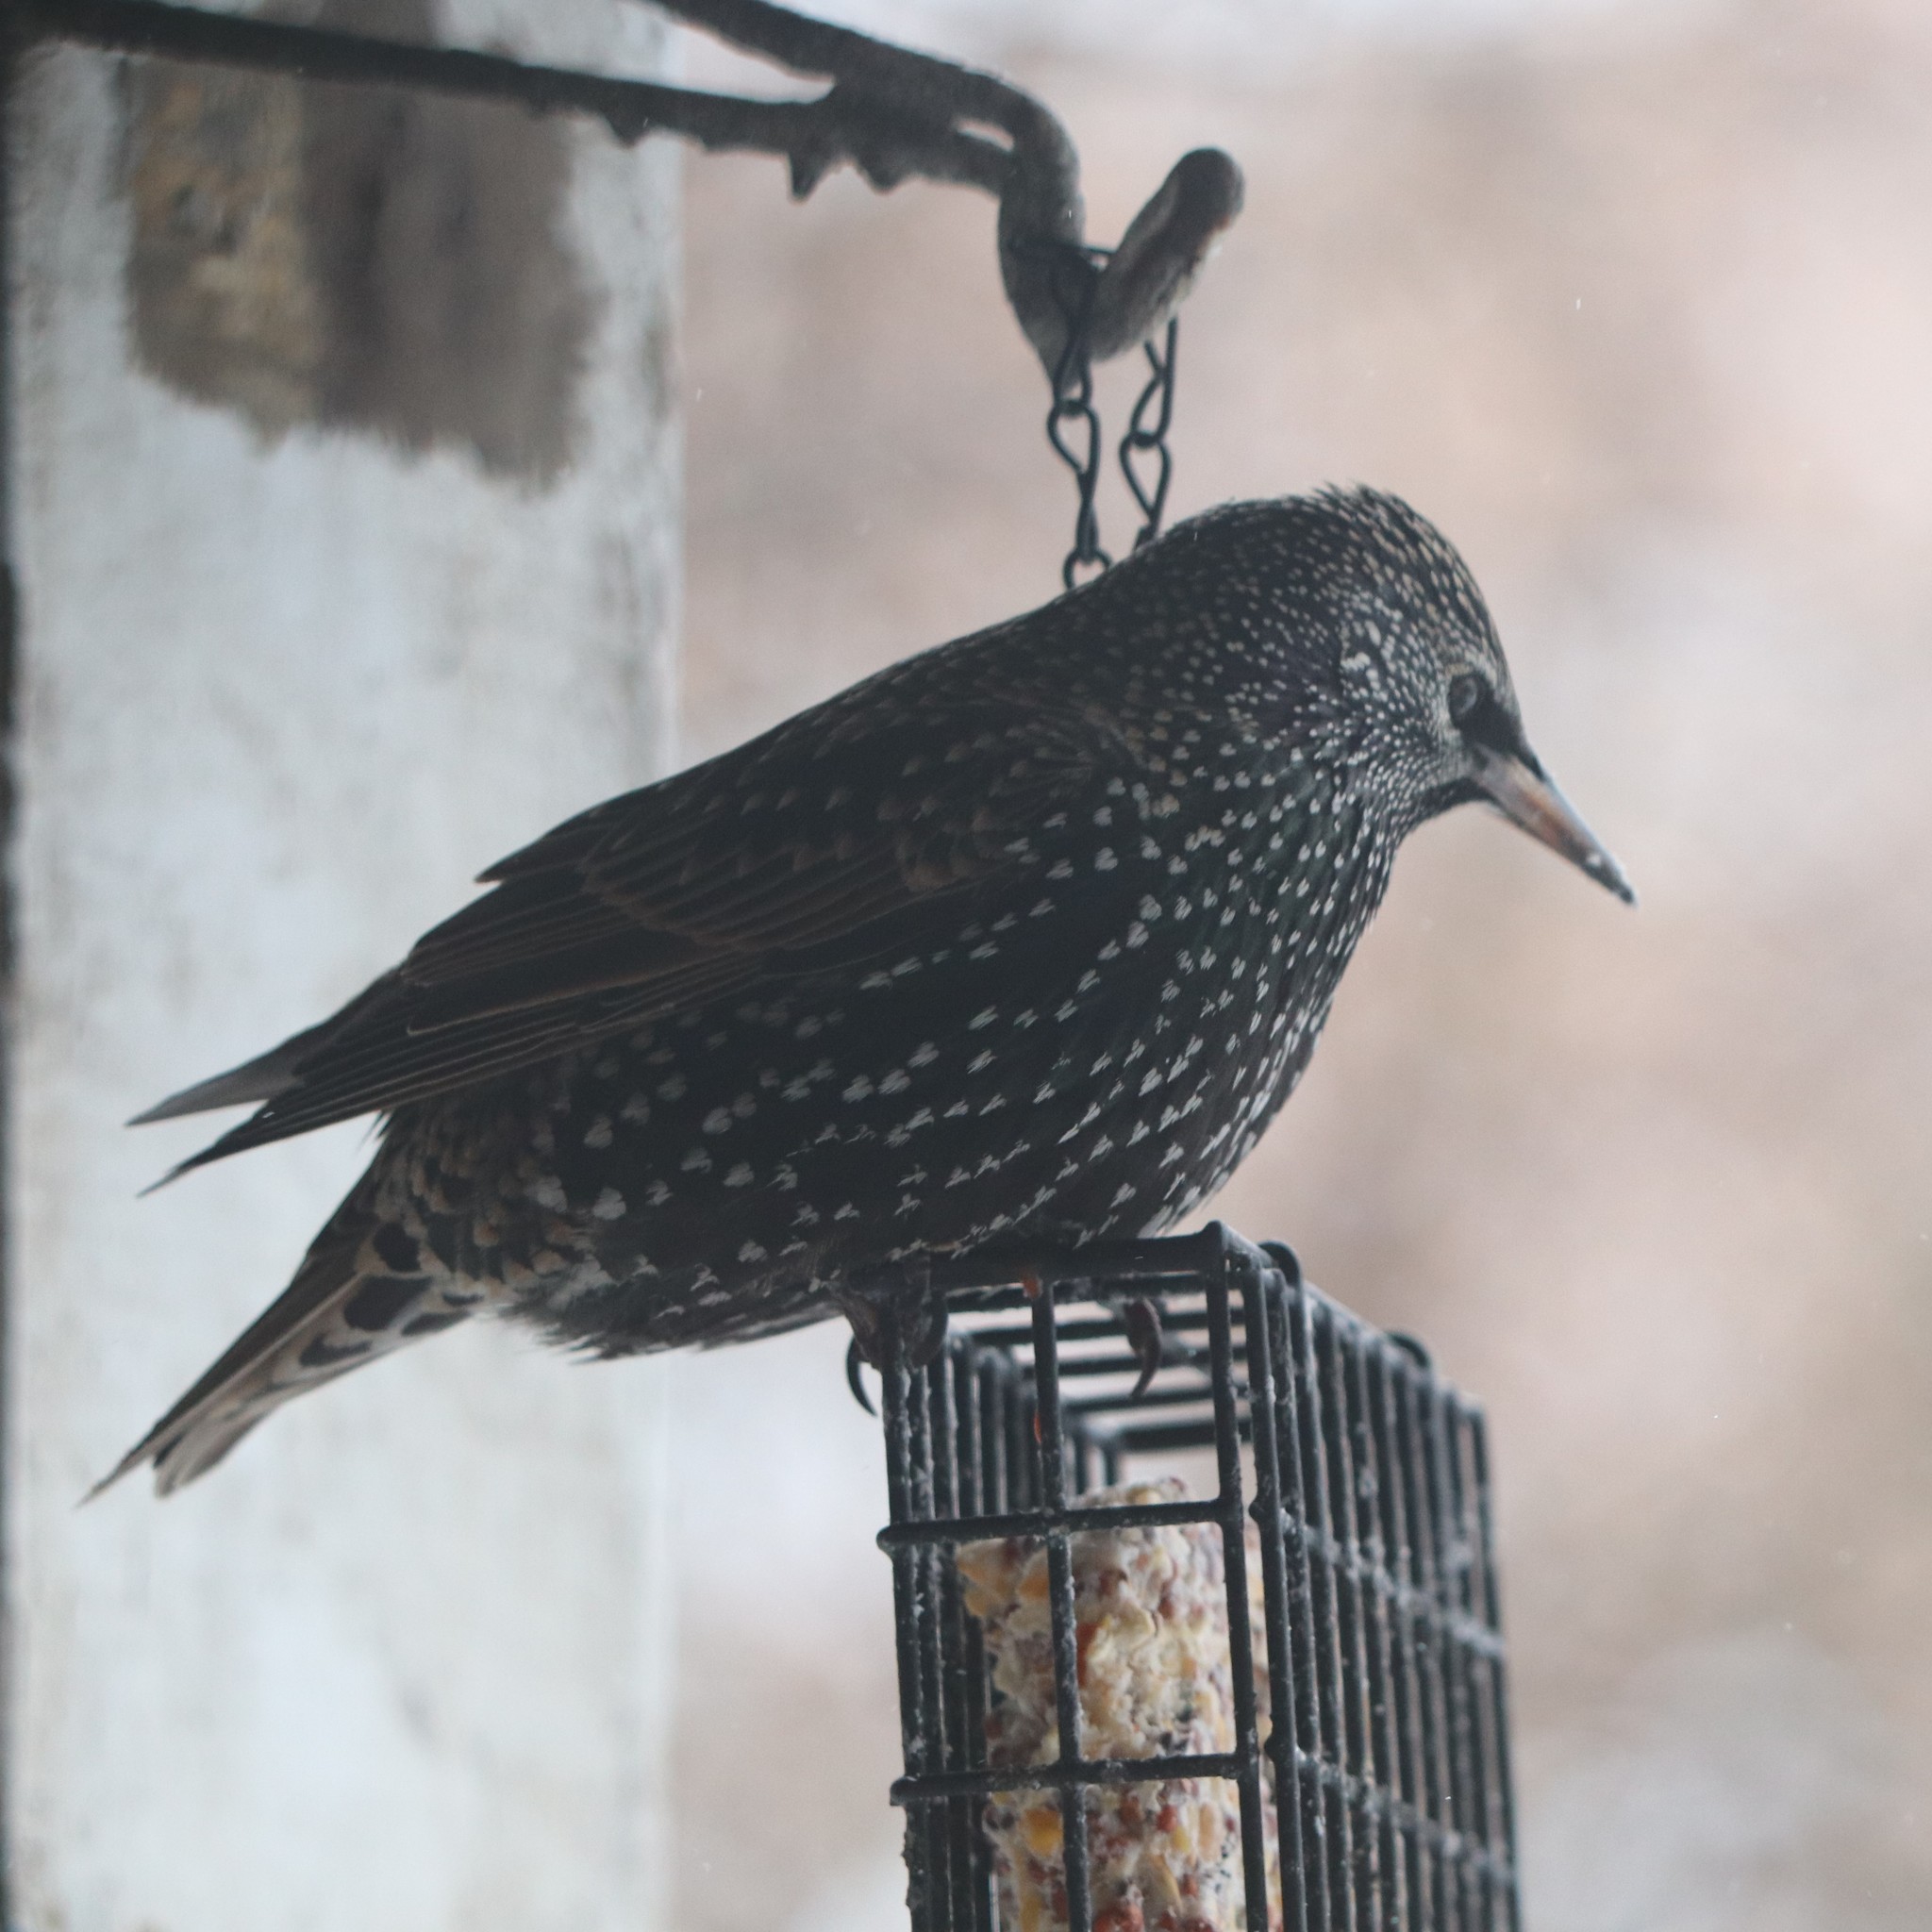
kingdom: Animalia
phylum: Chordata
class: Aves
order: Passeriformes
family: Sturnidae
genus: Sturnus
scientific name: Sturnus vulgaris
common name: Common starling
